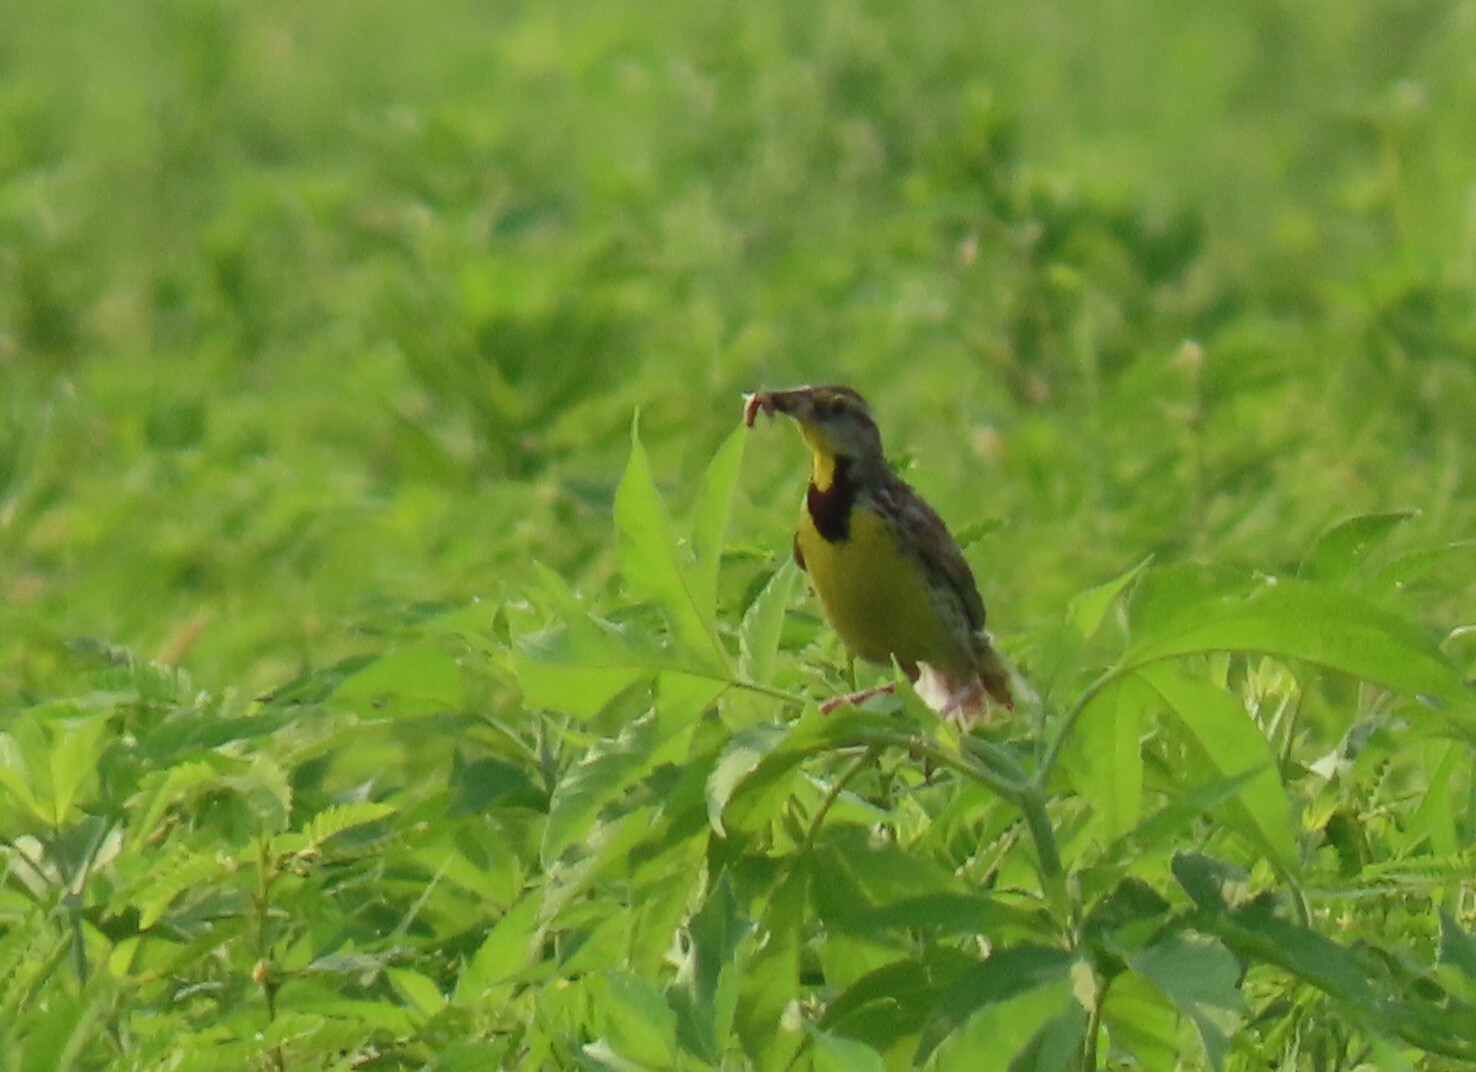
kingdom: Animalia
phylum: Chordata
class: Aves
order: Passeriformes
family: Icteridae
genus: Sturnella
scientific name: Sturnella magna
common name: Eastern meadowlark
